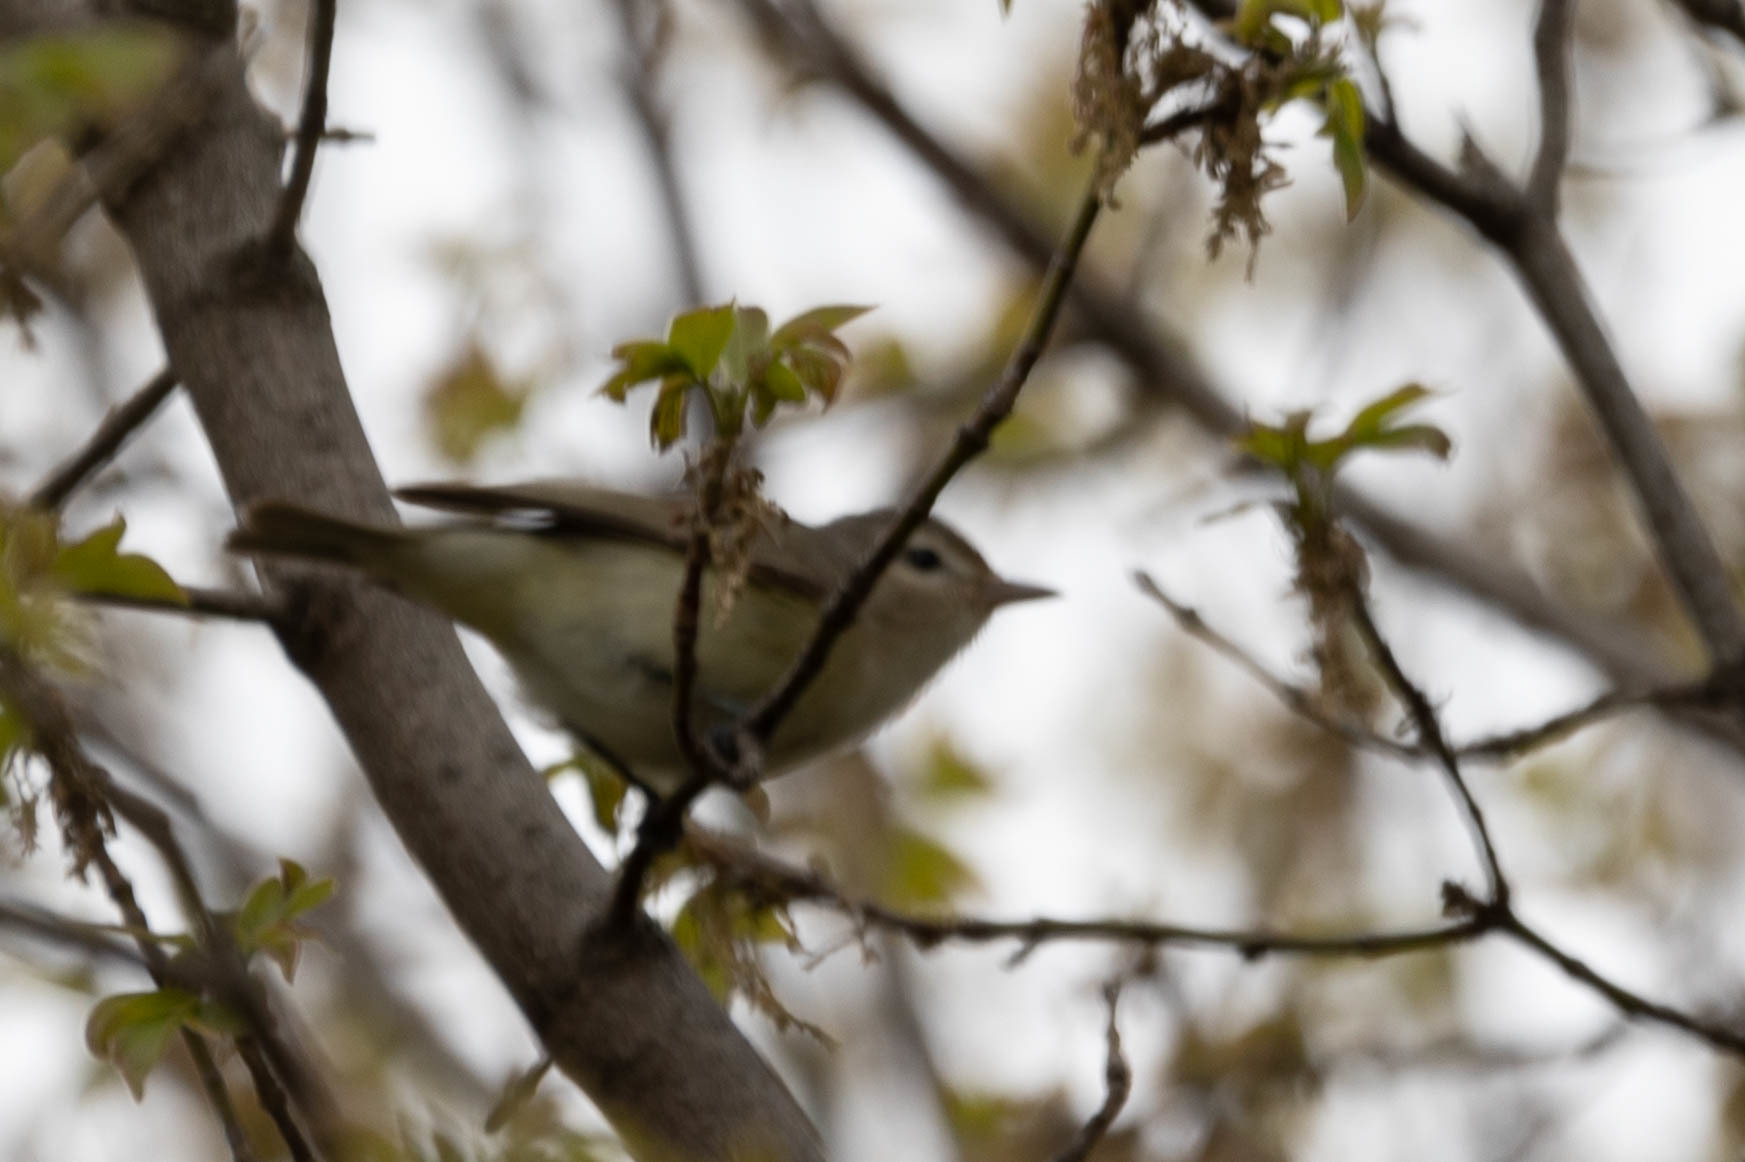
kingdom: Animalia
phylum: Chordata
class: Aves
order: Passeriformes
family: Vireonidae
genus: Vireo
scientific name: Vireo gilvus
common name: Warbling vireo
